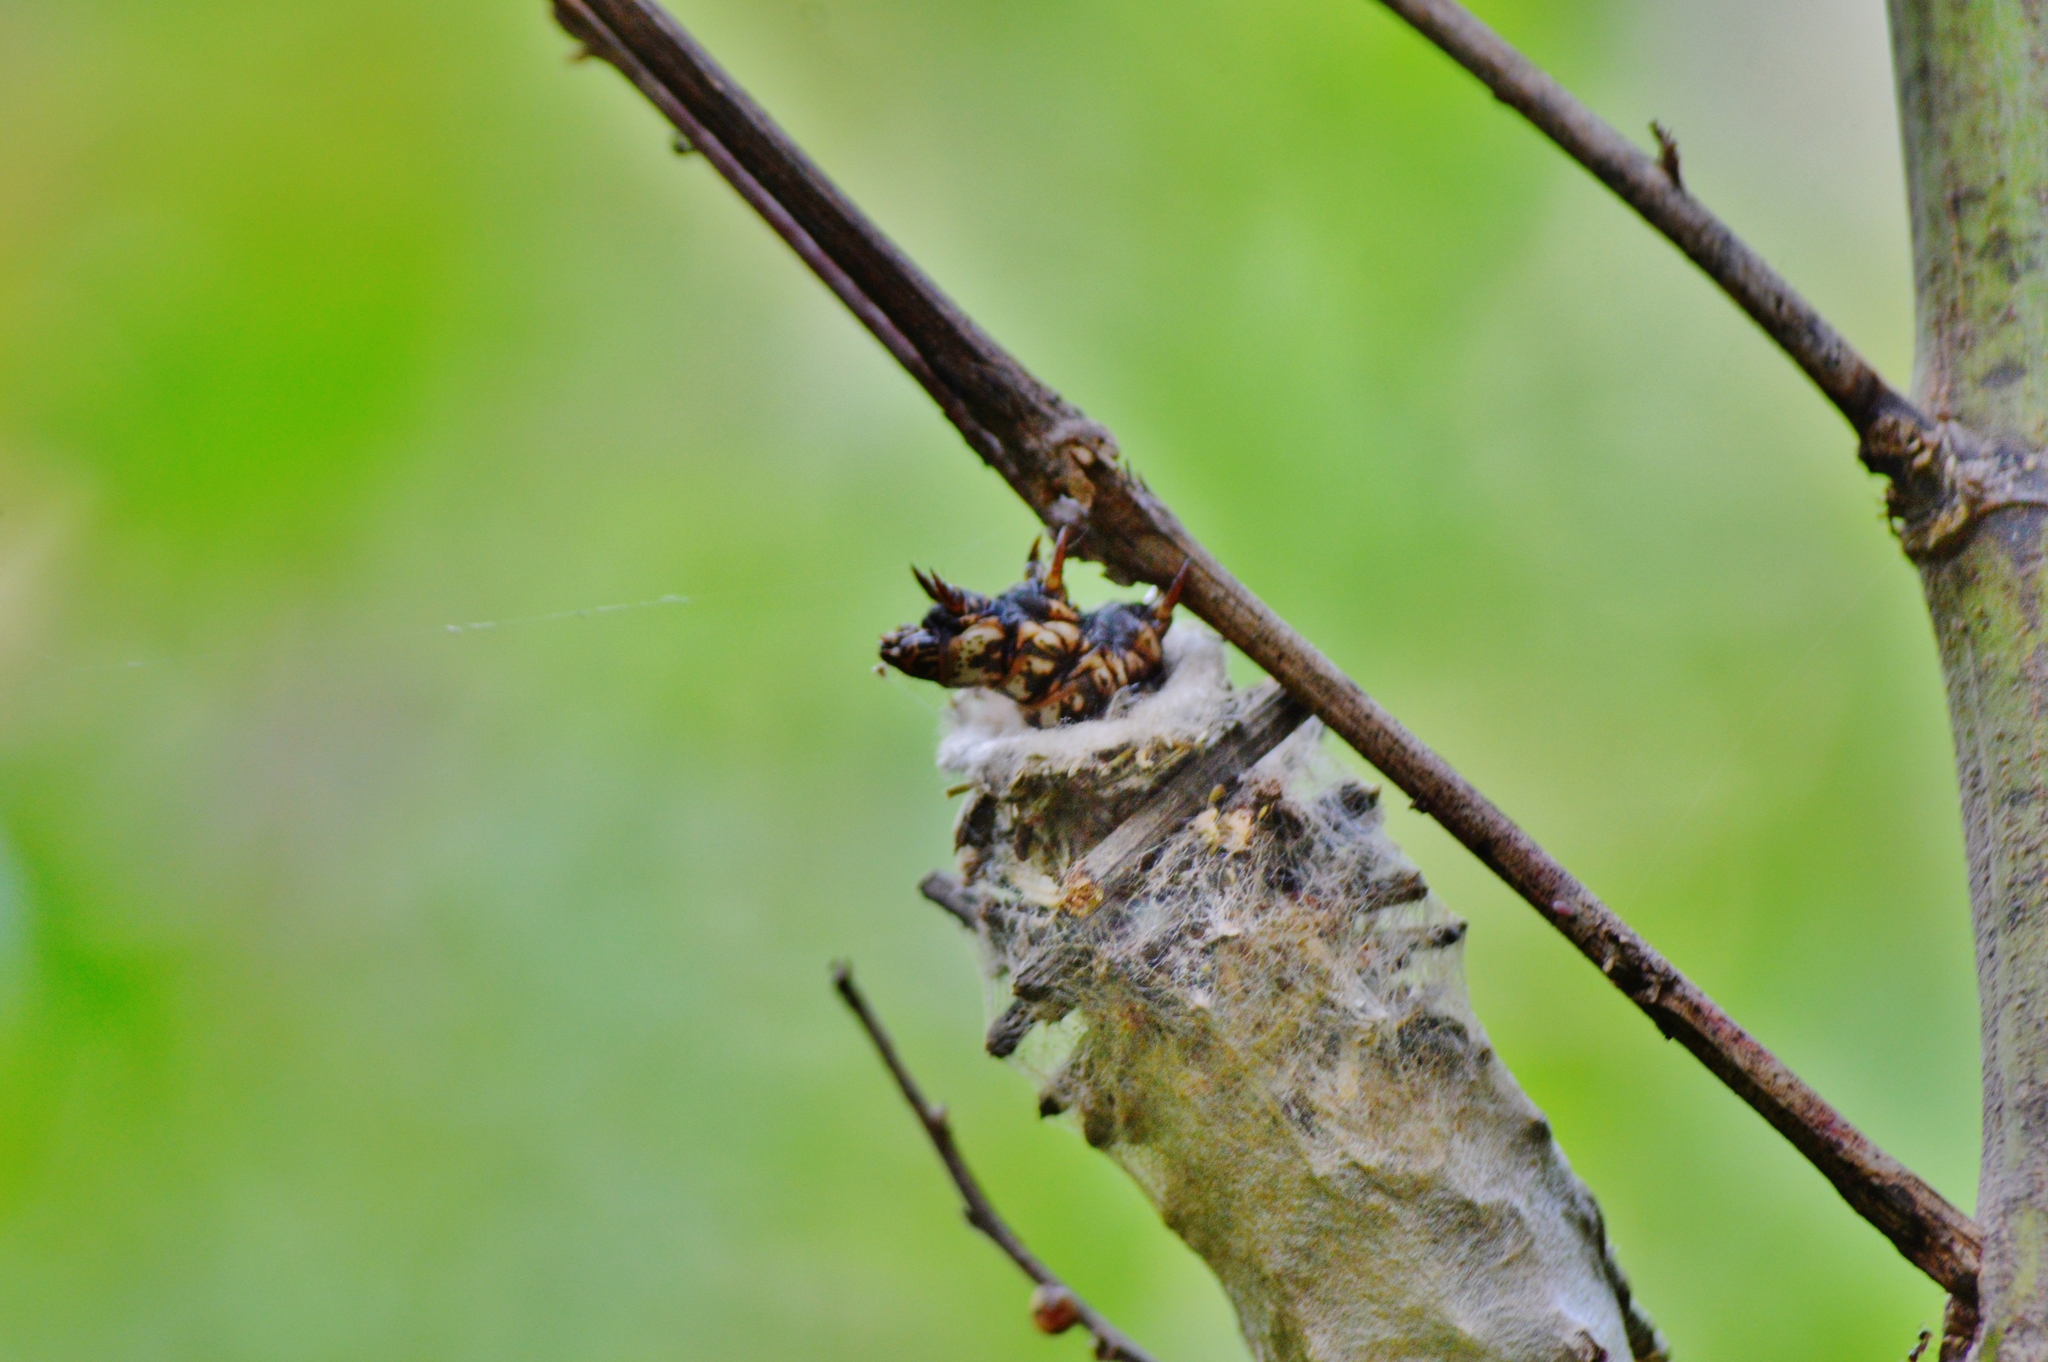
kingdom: Animalia
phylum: Arthropoda
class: Insecta
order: Lepidoptera
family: Psychidae
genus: Oiketicus
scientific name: Oiketicus kirbyi
